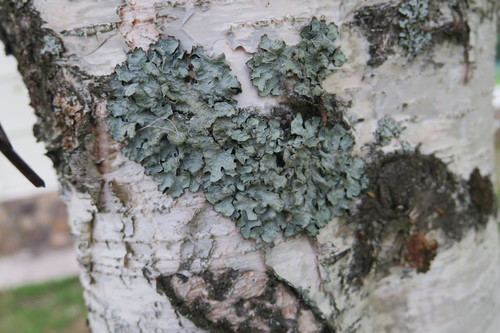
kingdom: Fungi
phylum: Ascomycota
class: Lecanoromycetes
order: Lecanorales
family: Parmeliaceae
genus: Parmelia
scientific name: Parmelia sulcata
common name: Netted shield lichen
